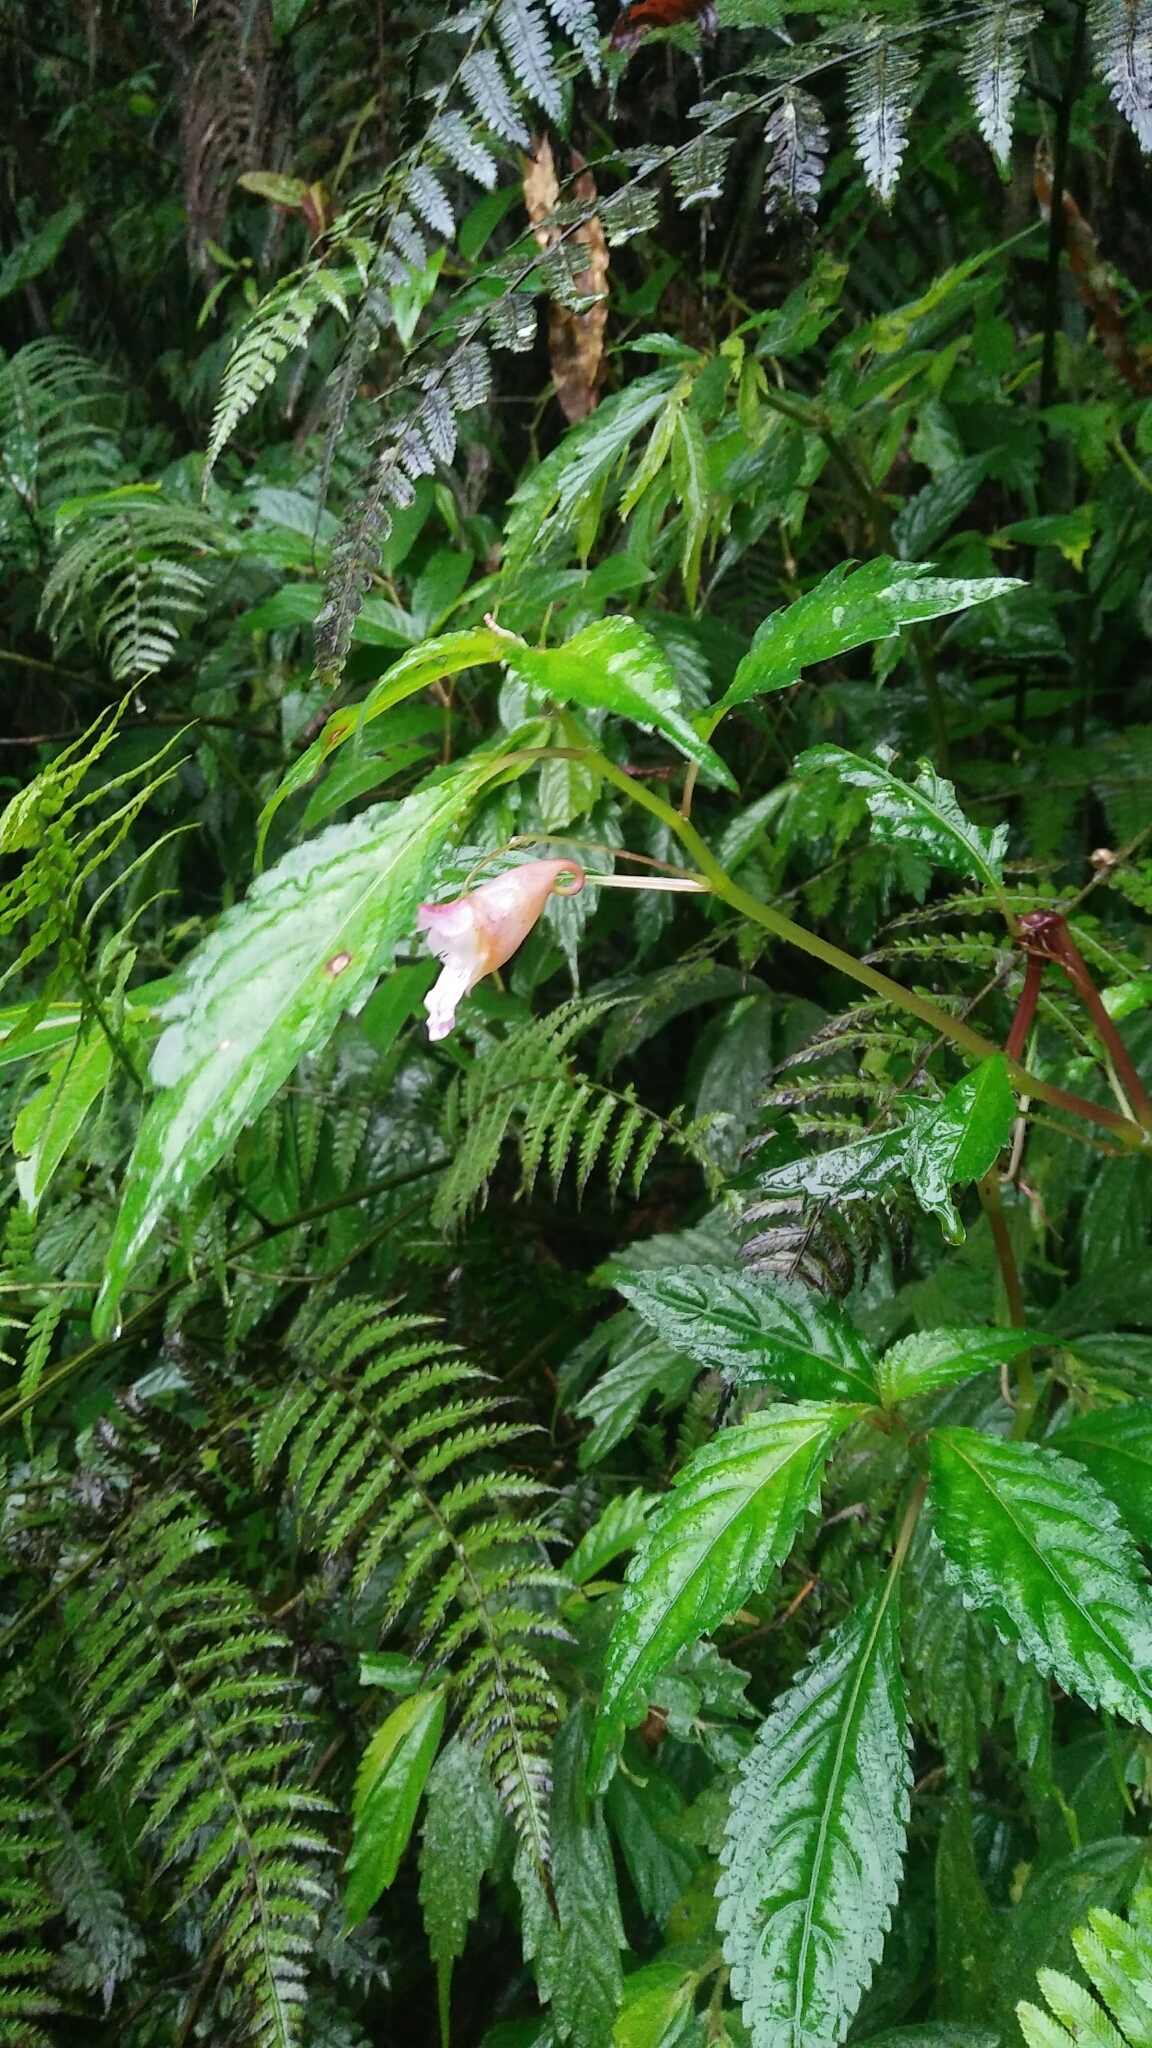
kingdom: Plantae
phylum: Tracheophyta
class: Magnoliopsida
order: Ericales
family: Balsaminaceae
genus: Impatiens
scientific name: Impatiens uniflora
